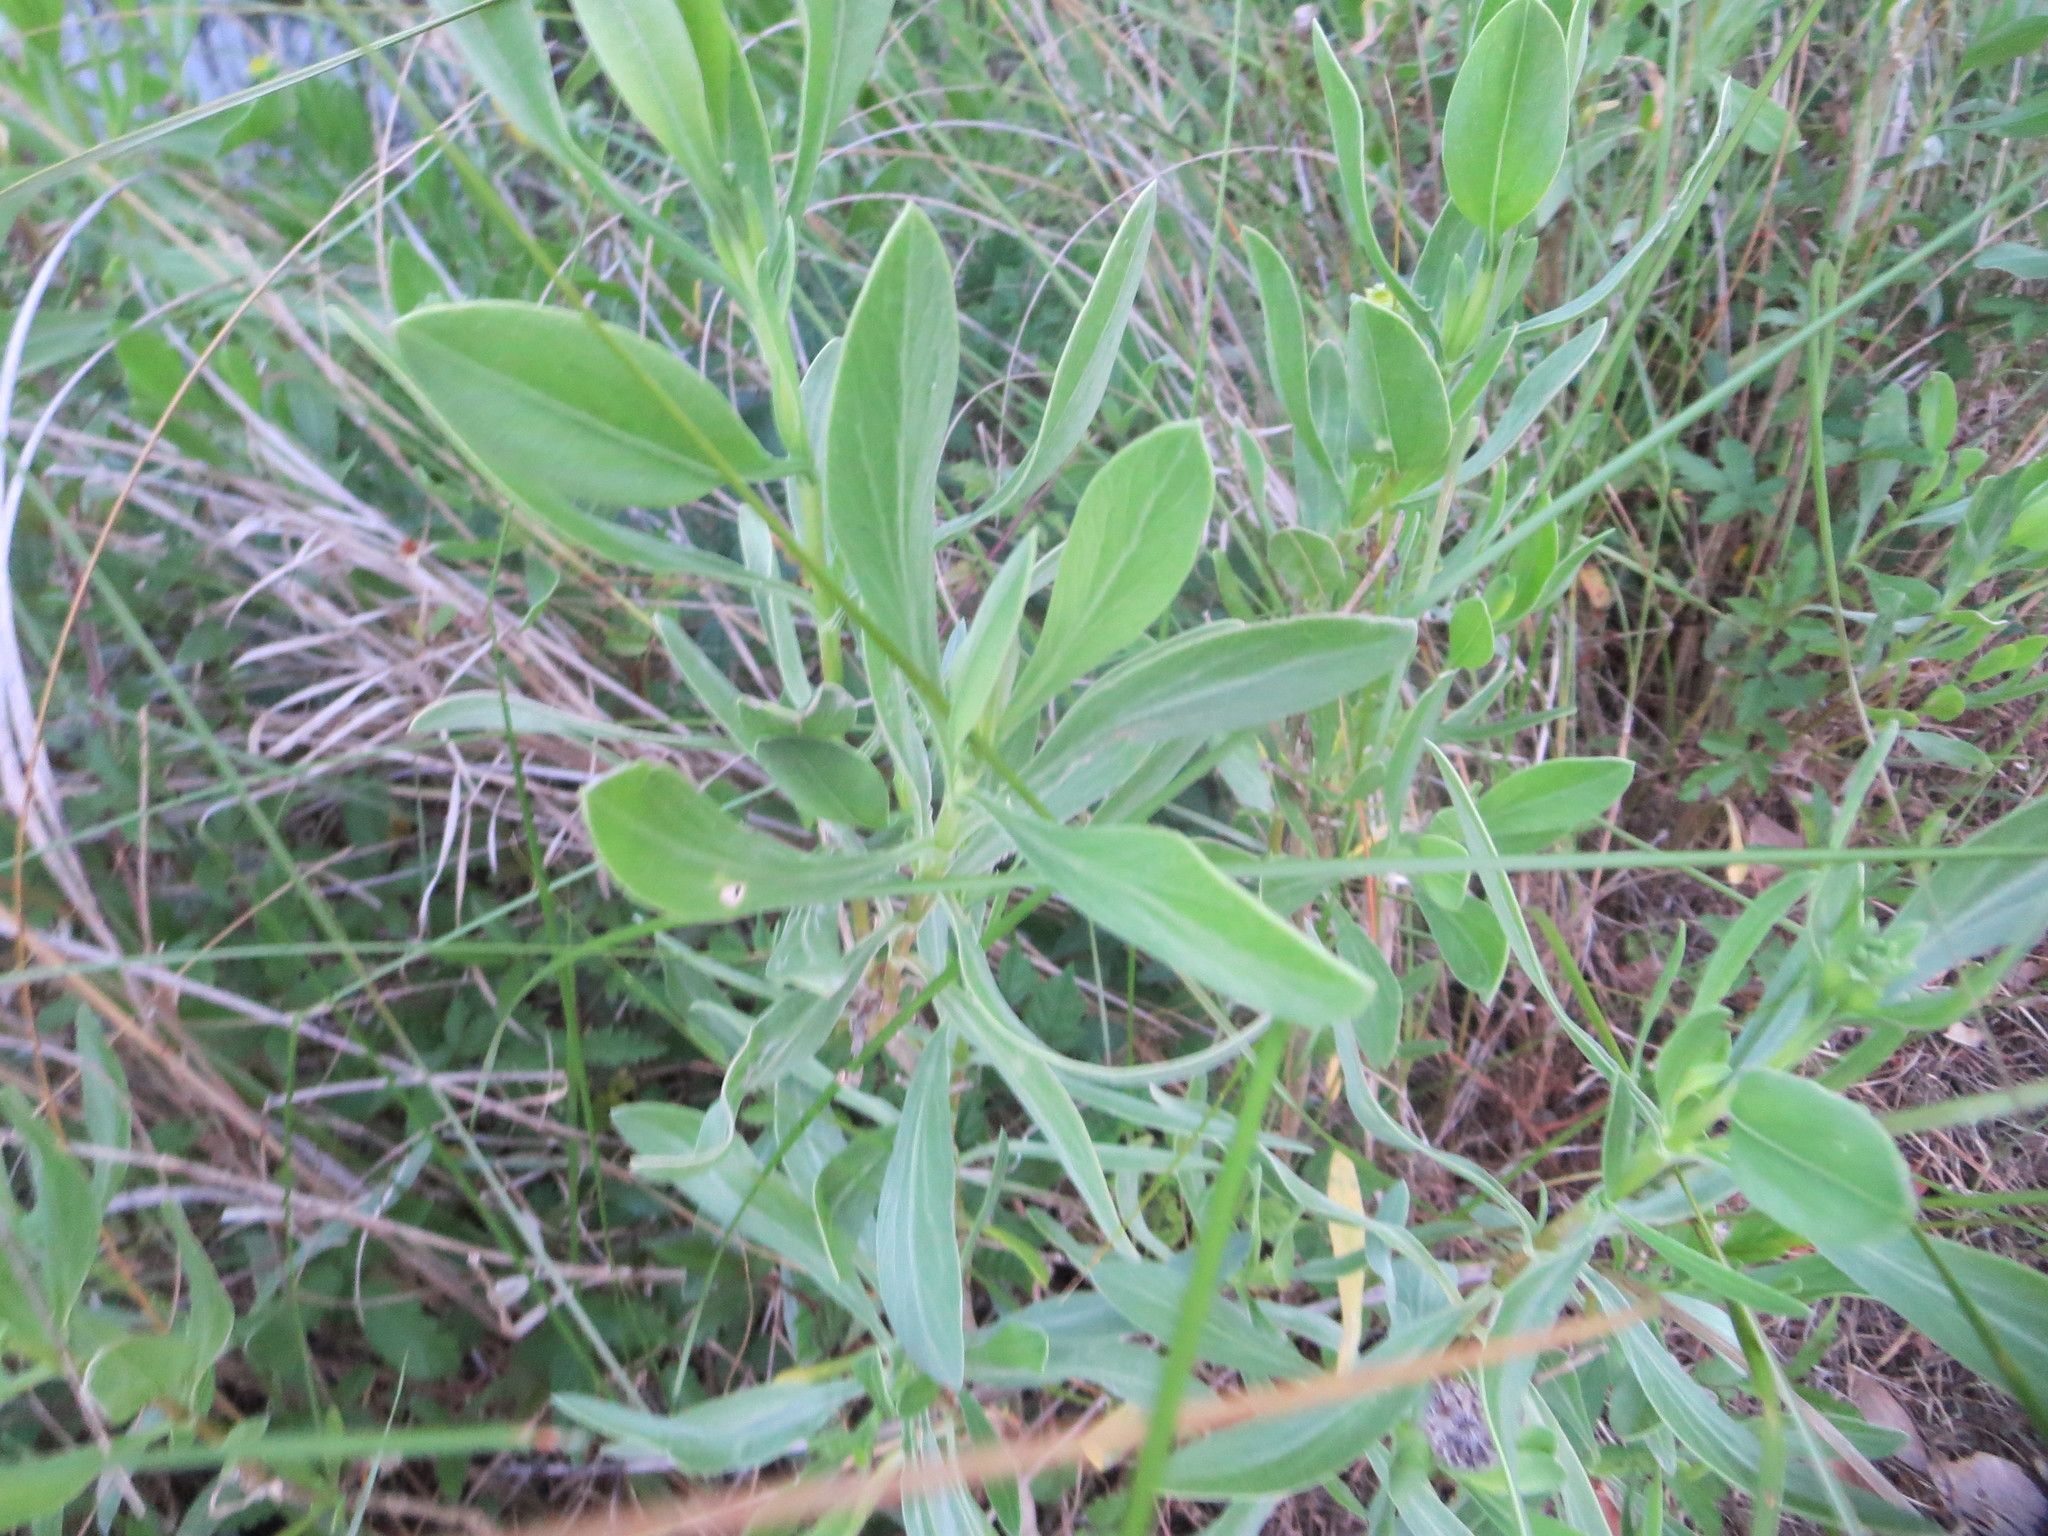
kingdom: Plantae
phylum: Tracheophyta
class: Magnoliopsida
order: Asterales
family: Asteraceae
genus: Borrichia
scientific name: Borrichia frutescens
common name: Sea oxeye
